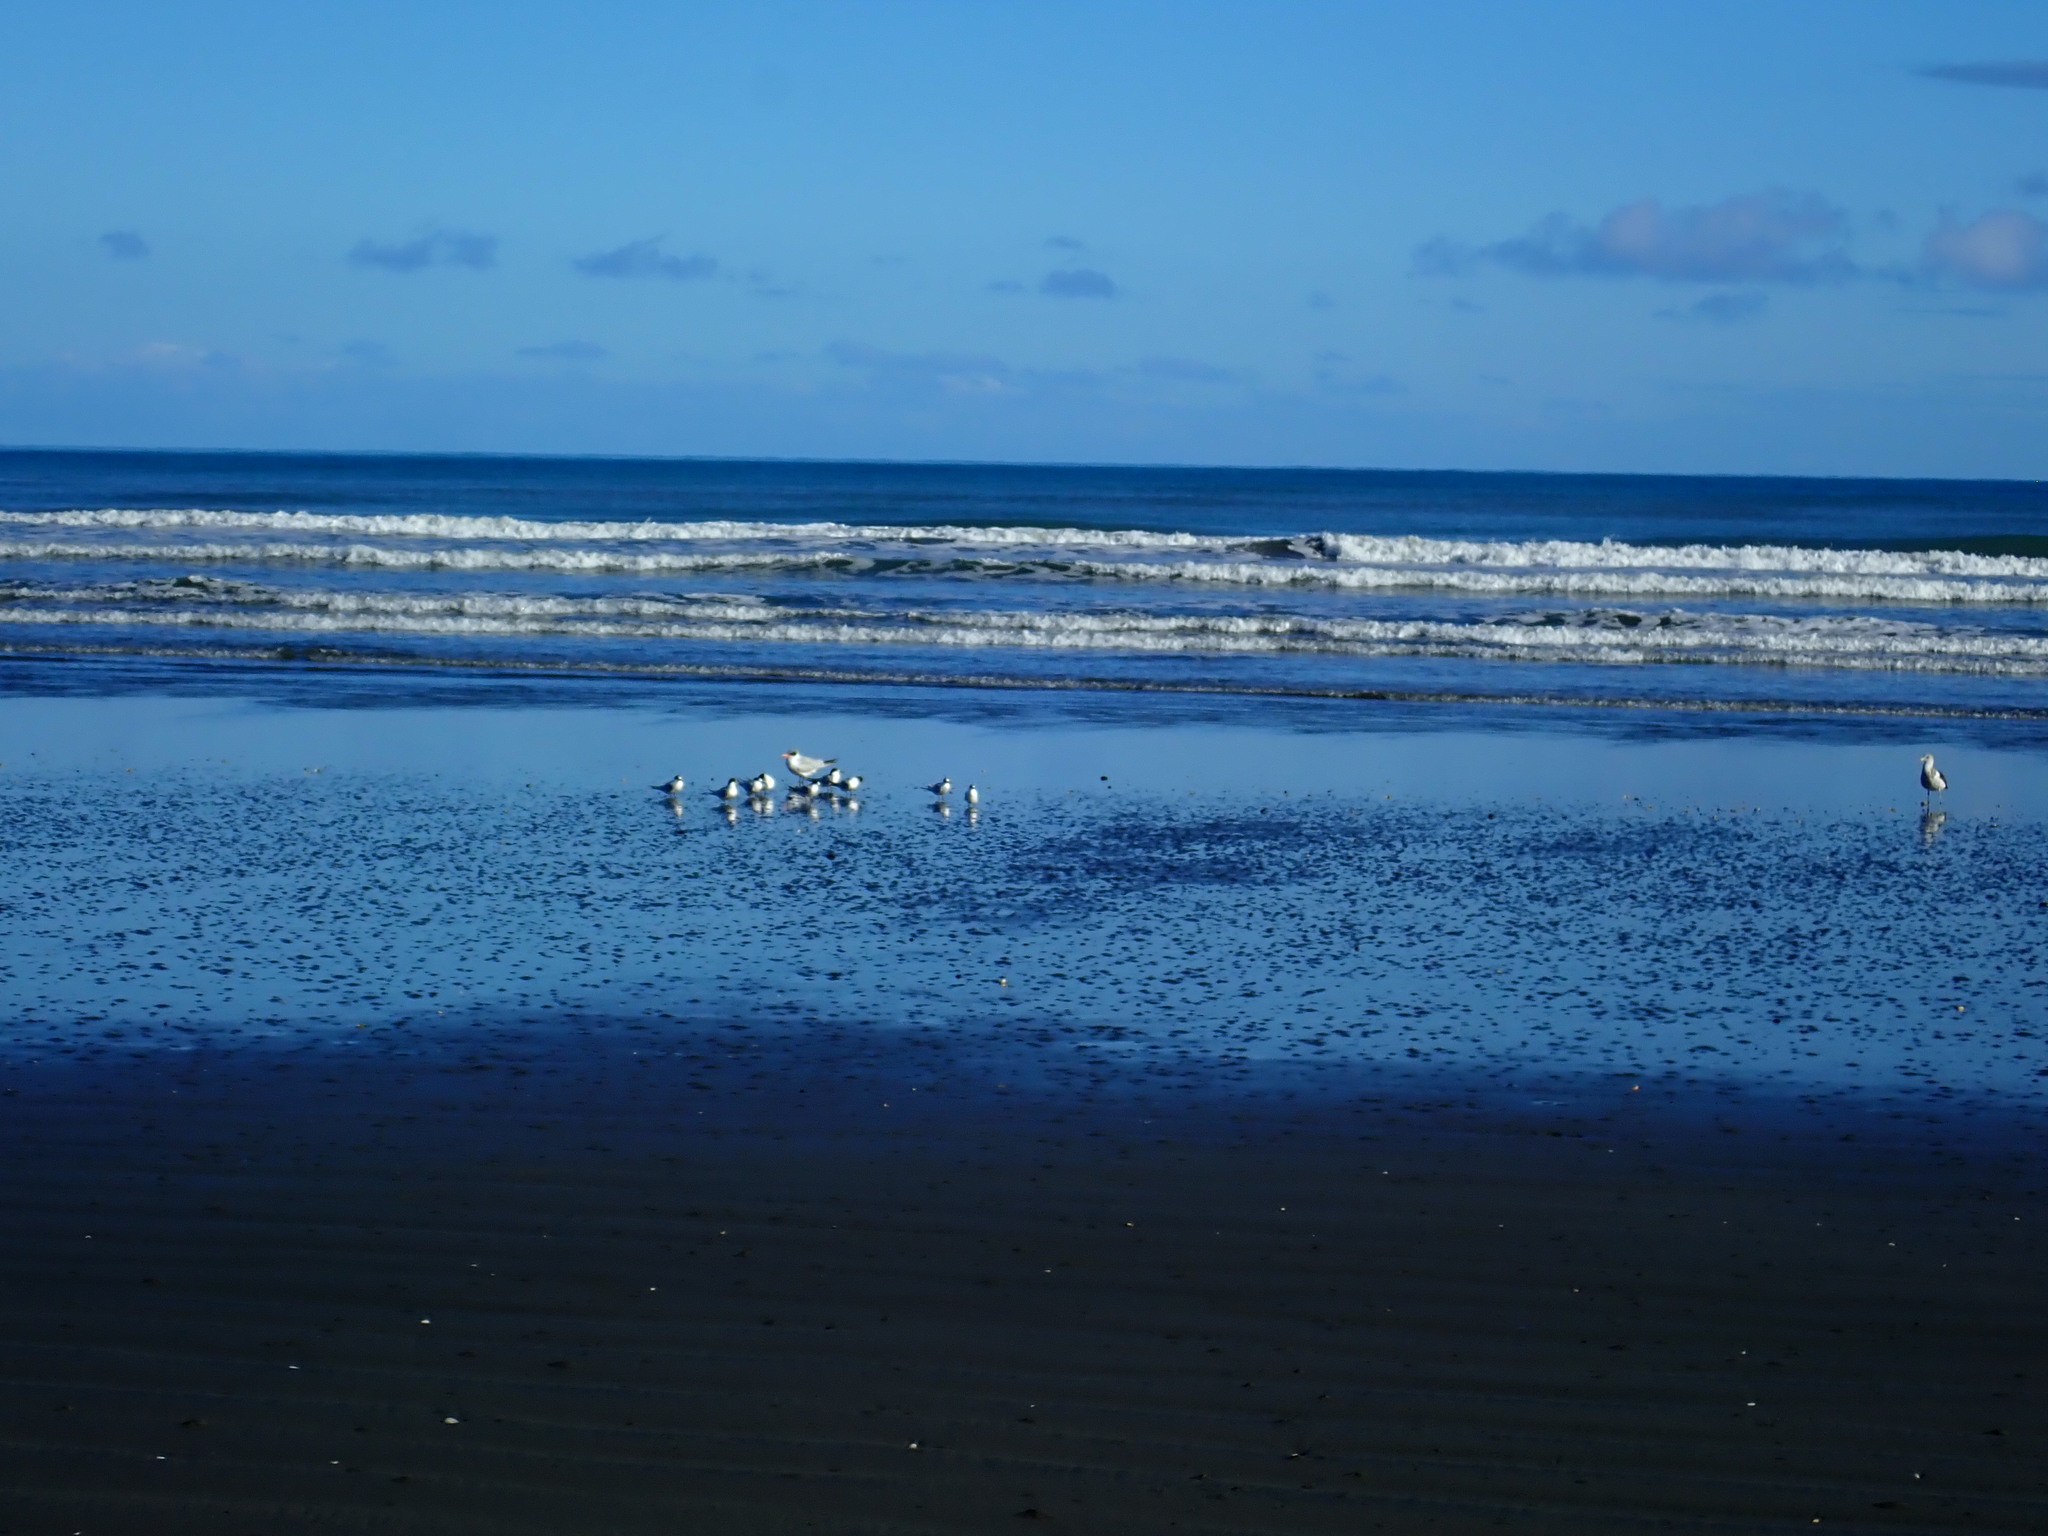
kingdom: Animalia
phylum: Chordata
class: Aves
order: Charadriiformes
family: Laridae
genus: Sterna
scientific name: Sterna striata
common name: White-fronted tern
